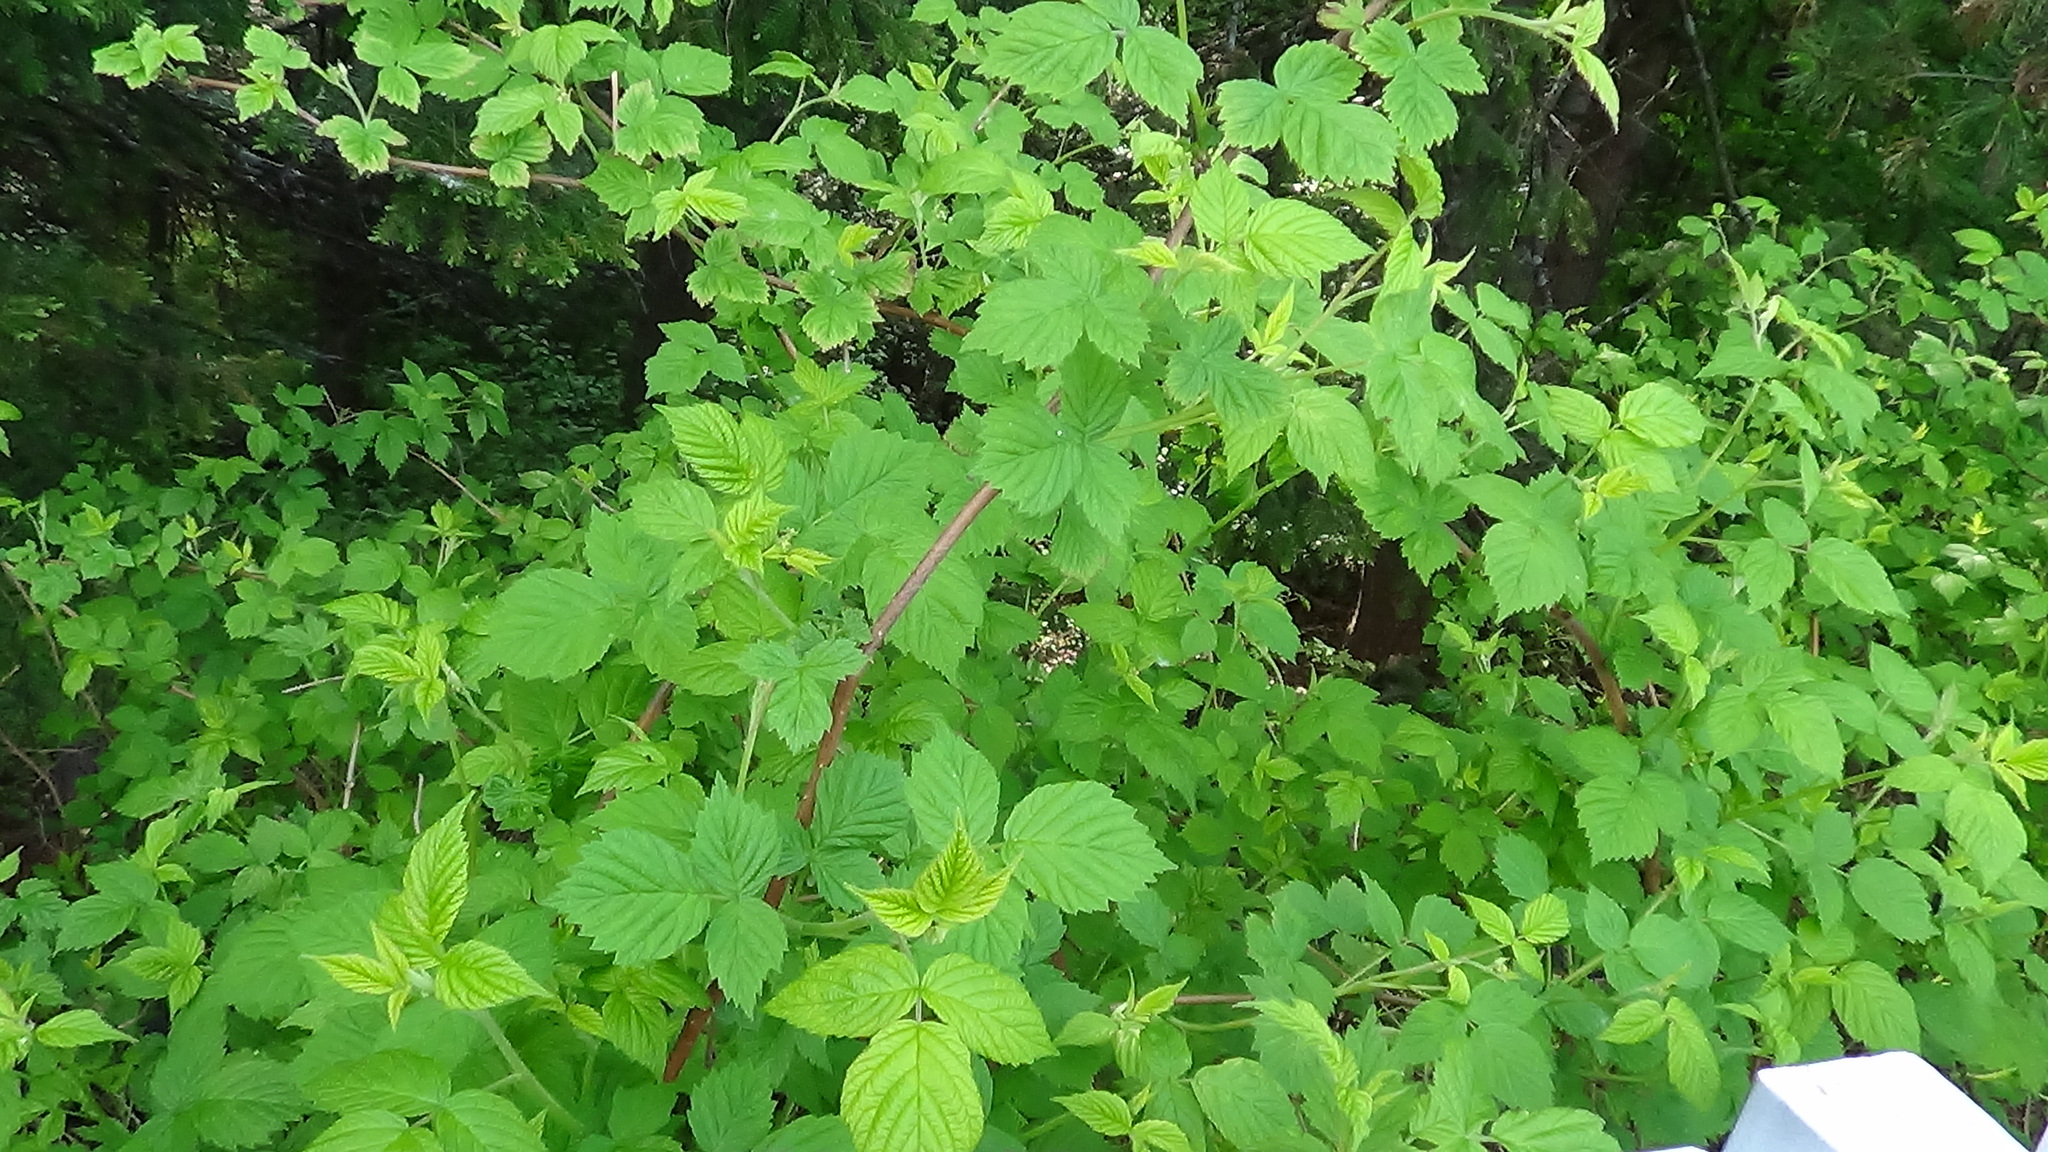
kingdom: Plantae
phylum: Tracheophyta
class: Magnoliopsida
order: Rosales
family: Rosaceae
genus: Rubus
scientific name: Rubus idaeus
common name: Raspberry
